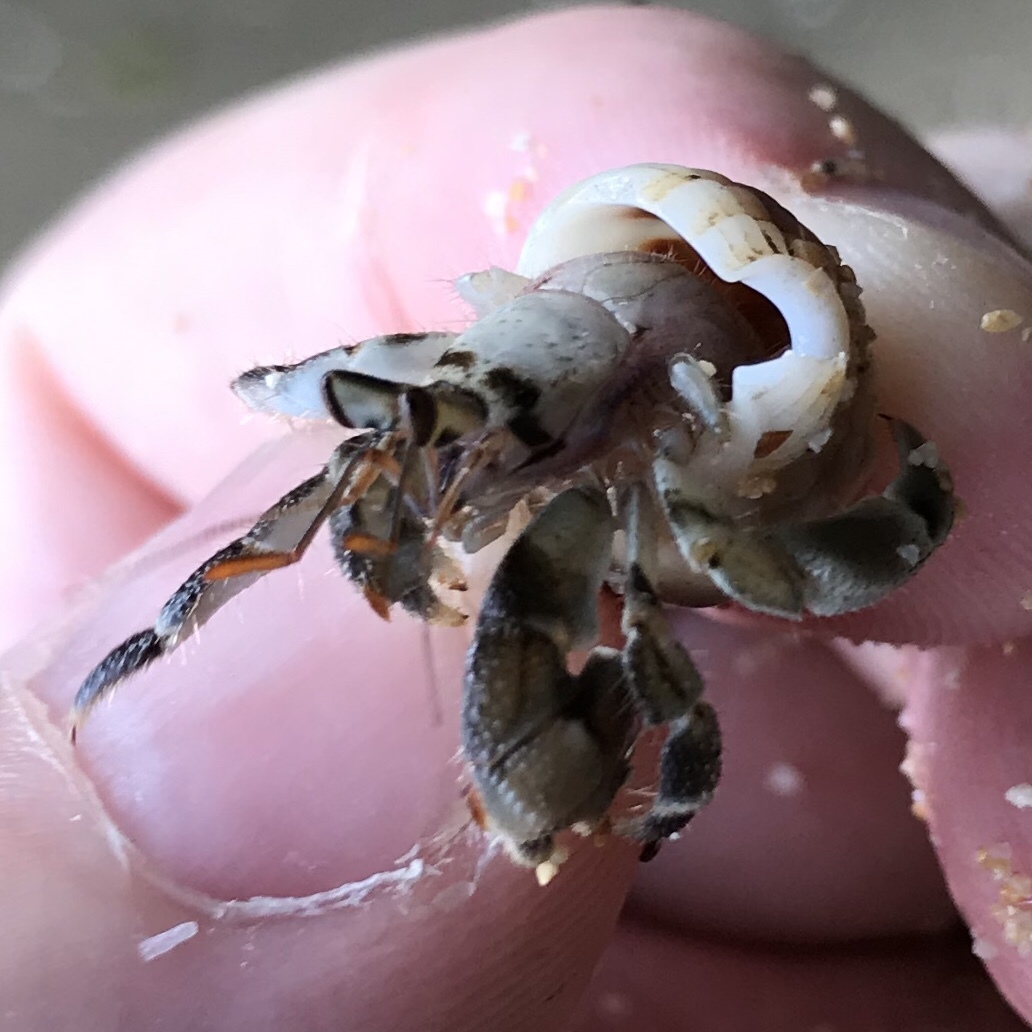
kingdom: Animalia
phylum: Arthropoda
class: Malacostraca
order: Decapoda
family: Coenobitidae
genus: Coenobita
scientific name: Coenobita rugosus
